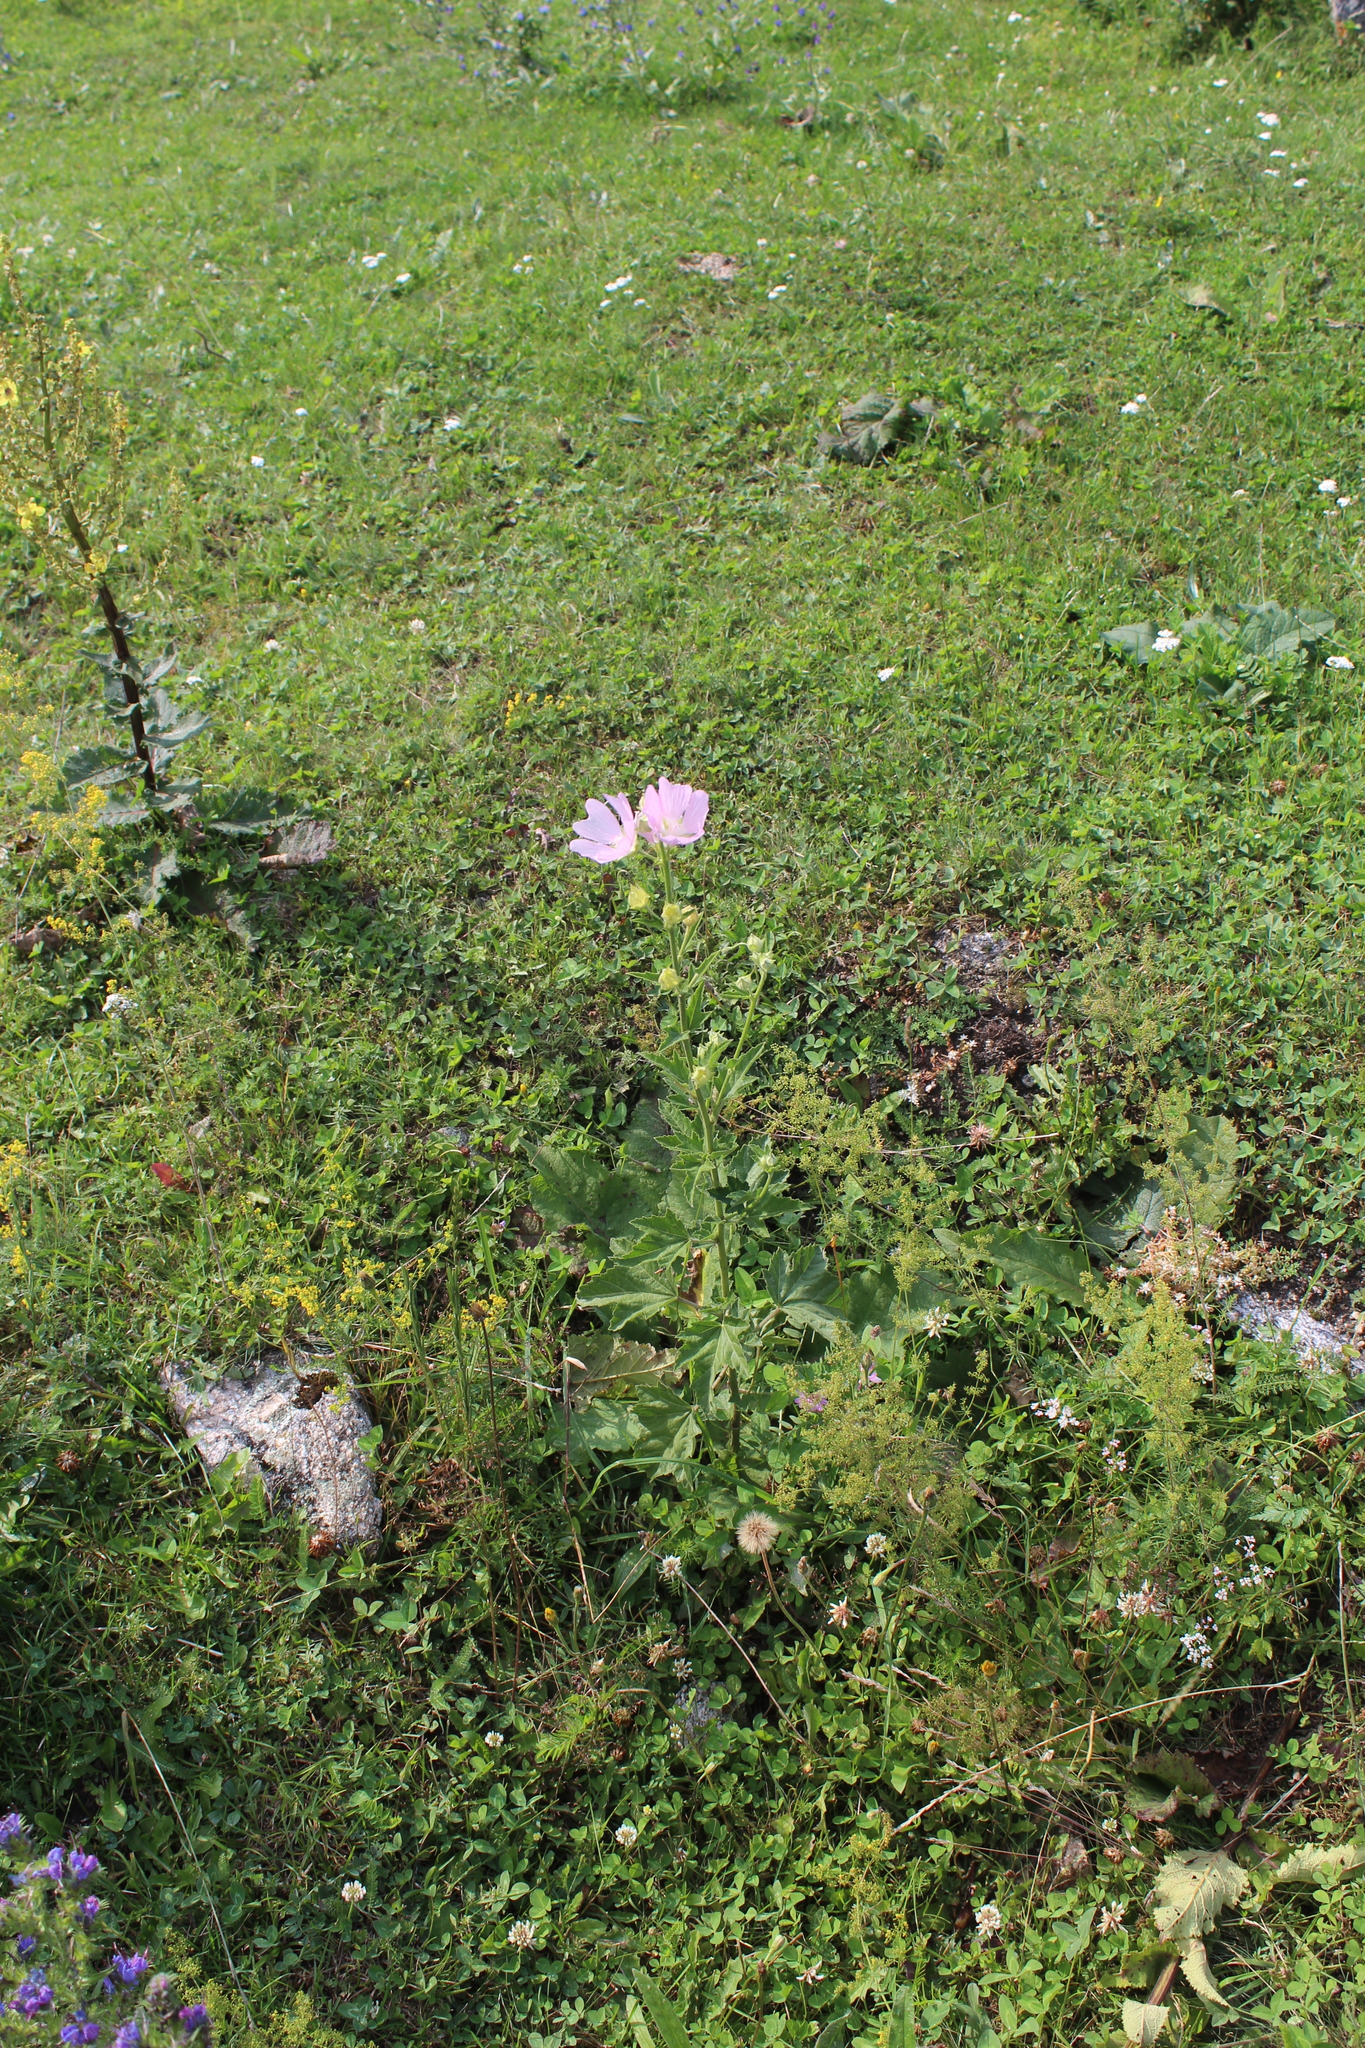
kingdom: Plantae
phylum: Tracheophyta
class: Magnoliopsida
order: Malvales
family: Malvaceae
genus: Malva
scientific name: Malva thuringiaca
